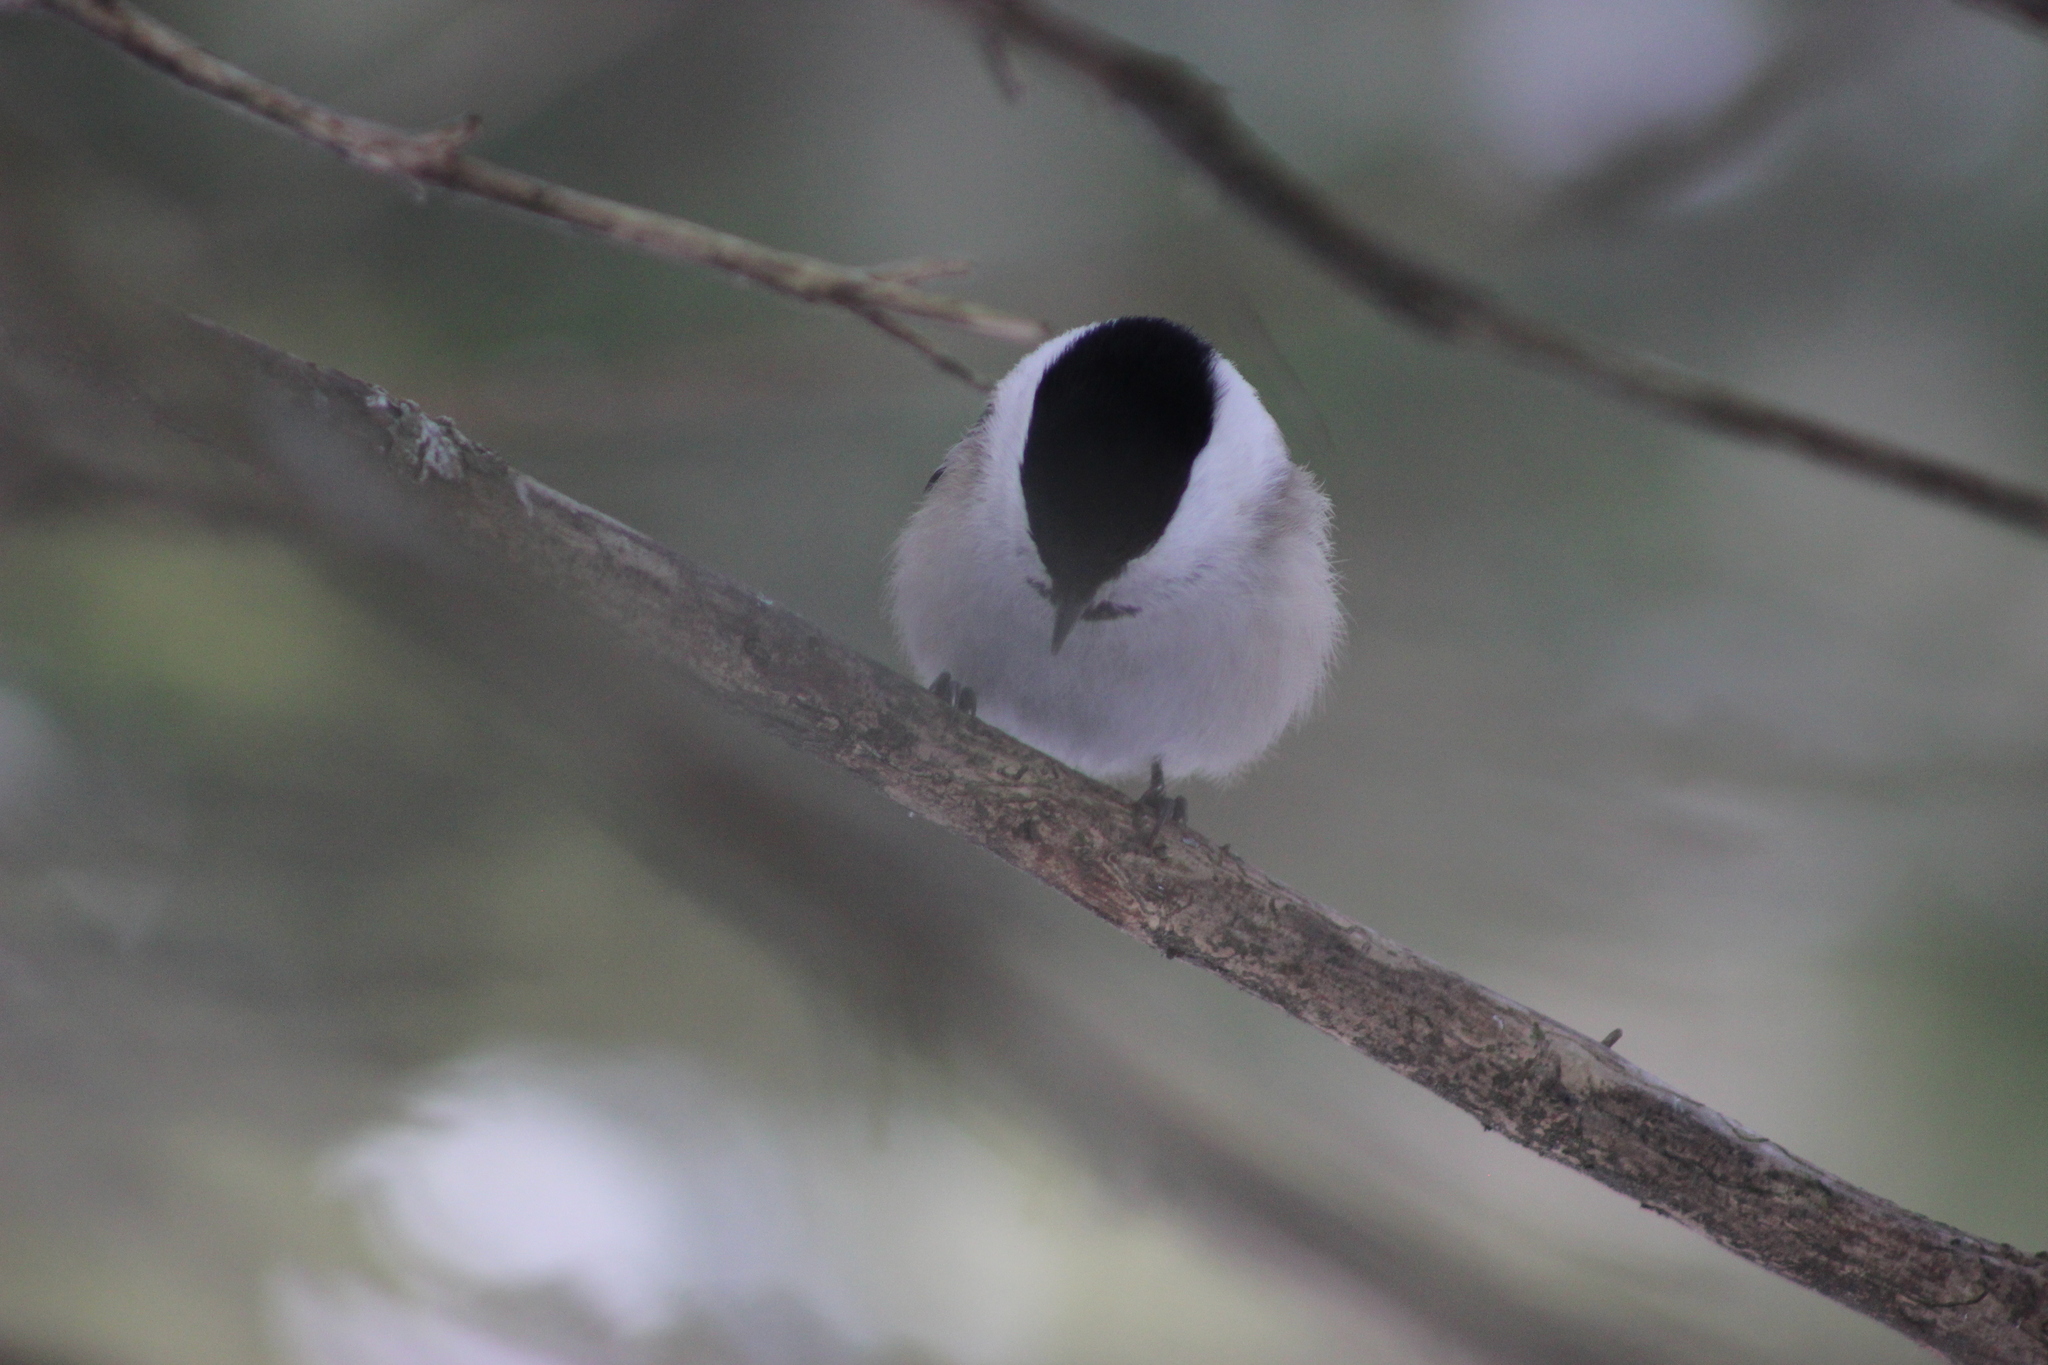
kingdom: Animalia
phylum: Chordata
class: Aves
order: Passeriformes
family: Paridae
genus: Poecile
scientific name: Poecile montanus
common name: Willow tit
